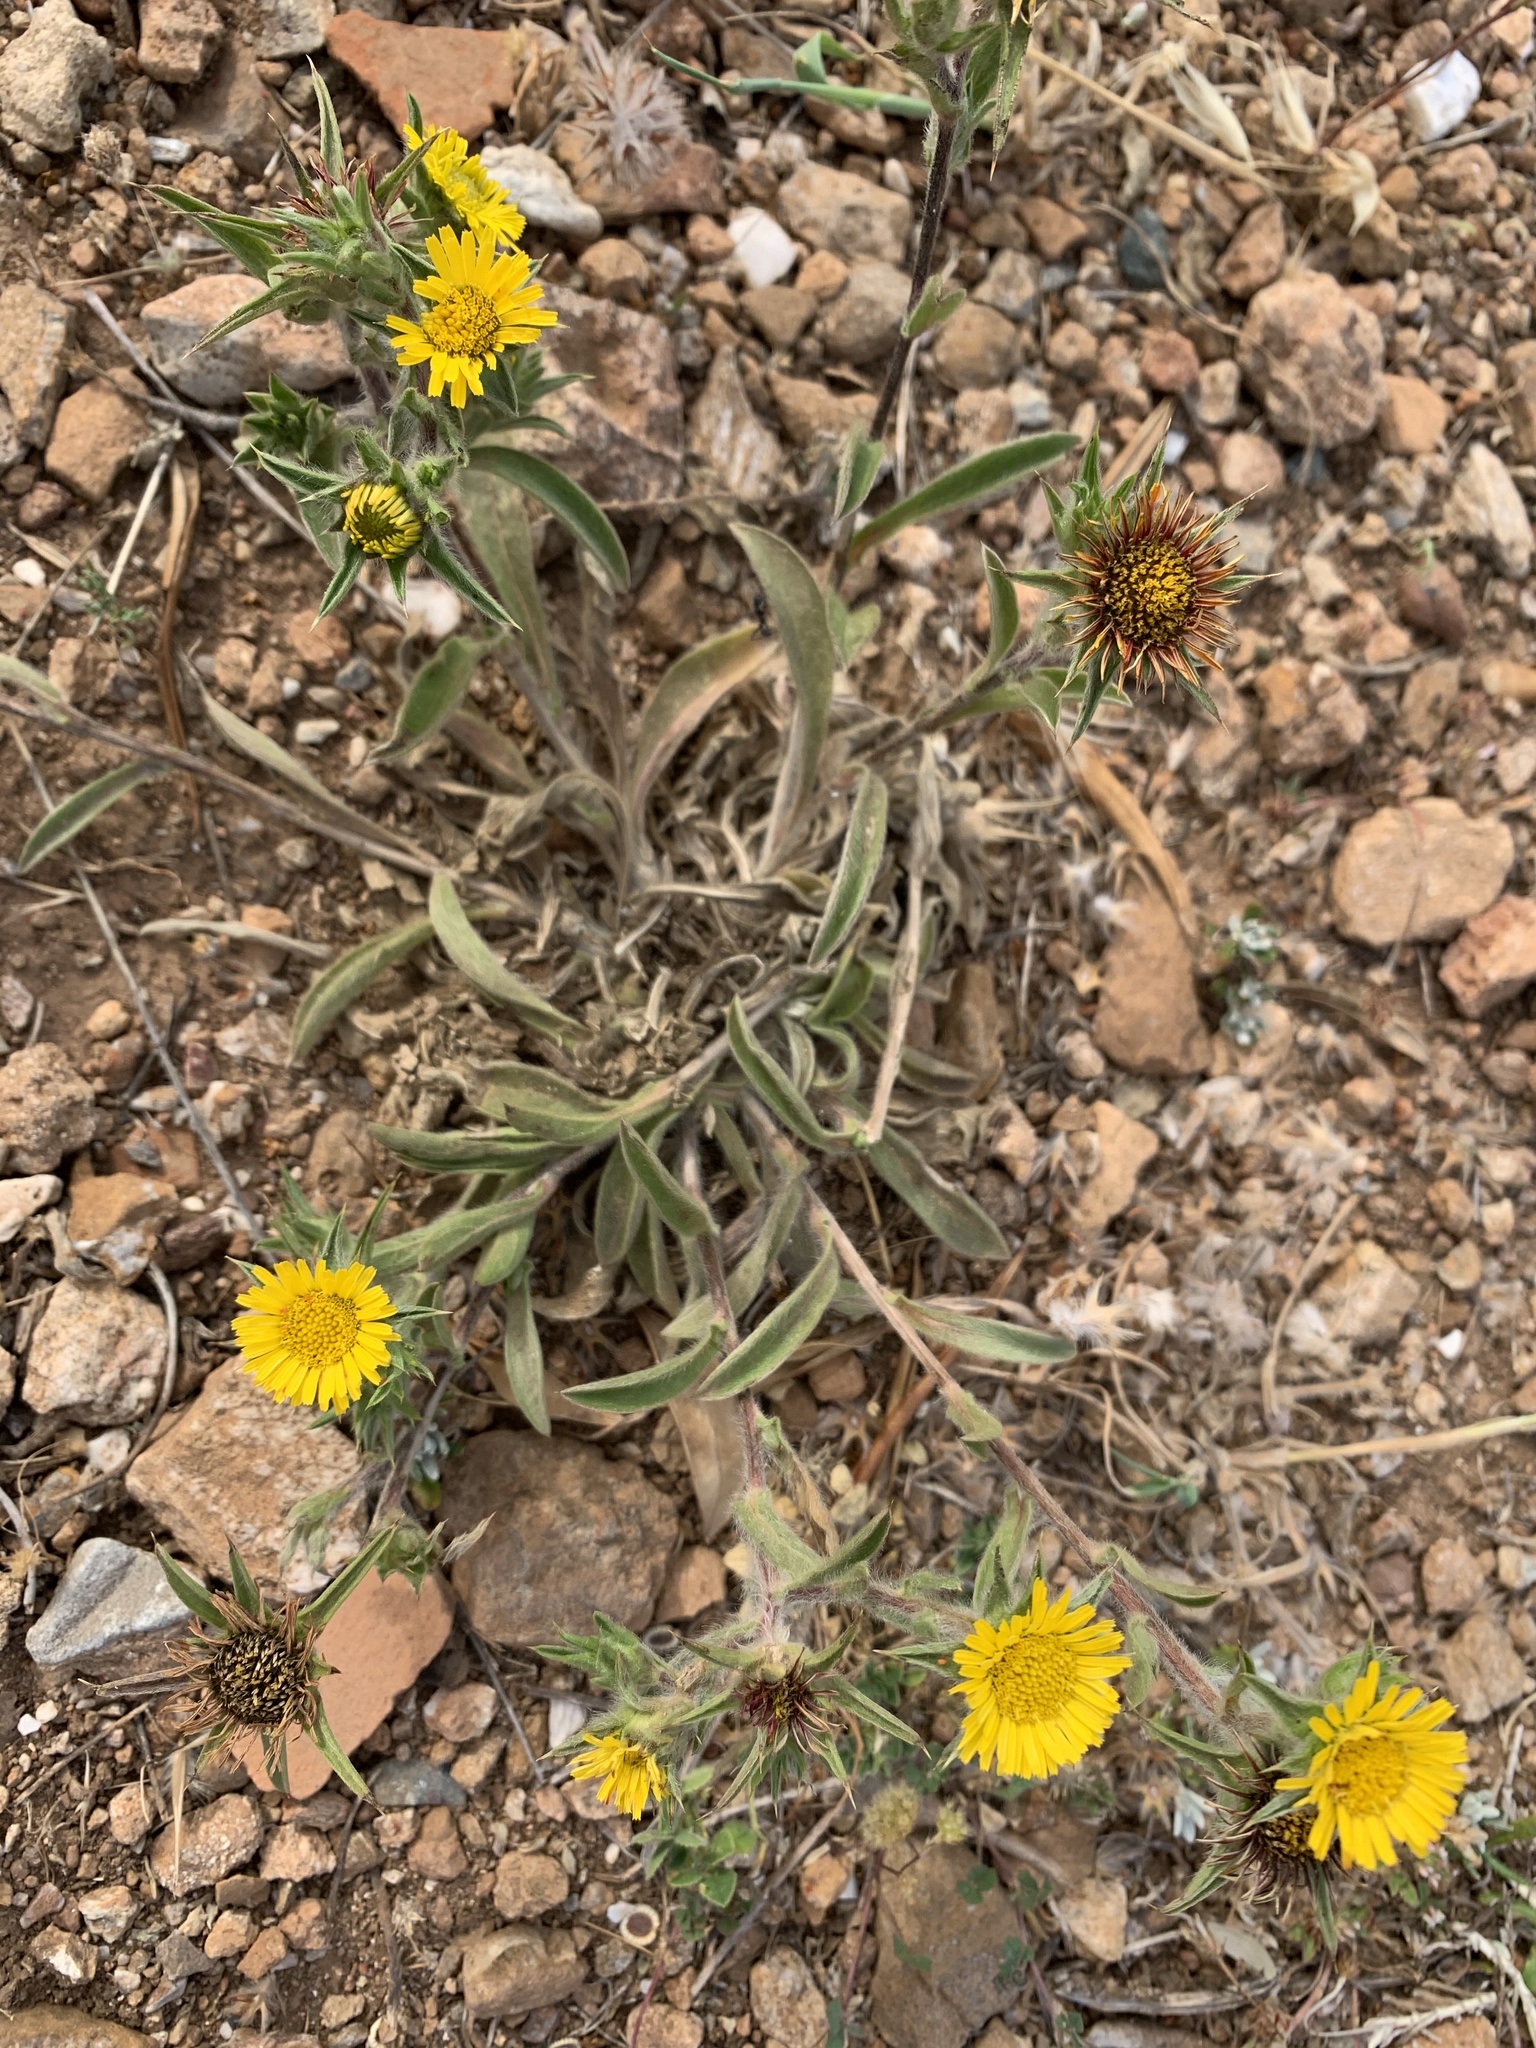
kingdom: Plantae
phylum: Tracheophyta
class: Magnoliopsida
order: Asterales
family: Asteraceae
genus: Pallenis
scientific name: Pallenis spinosa
